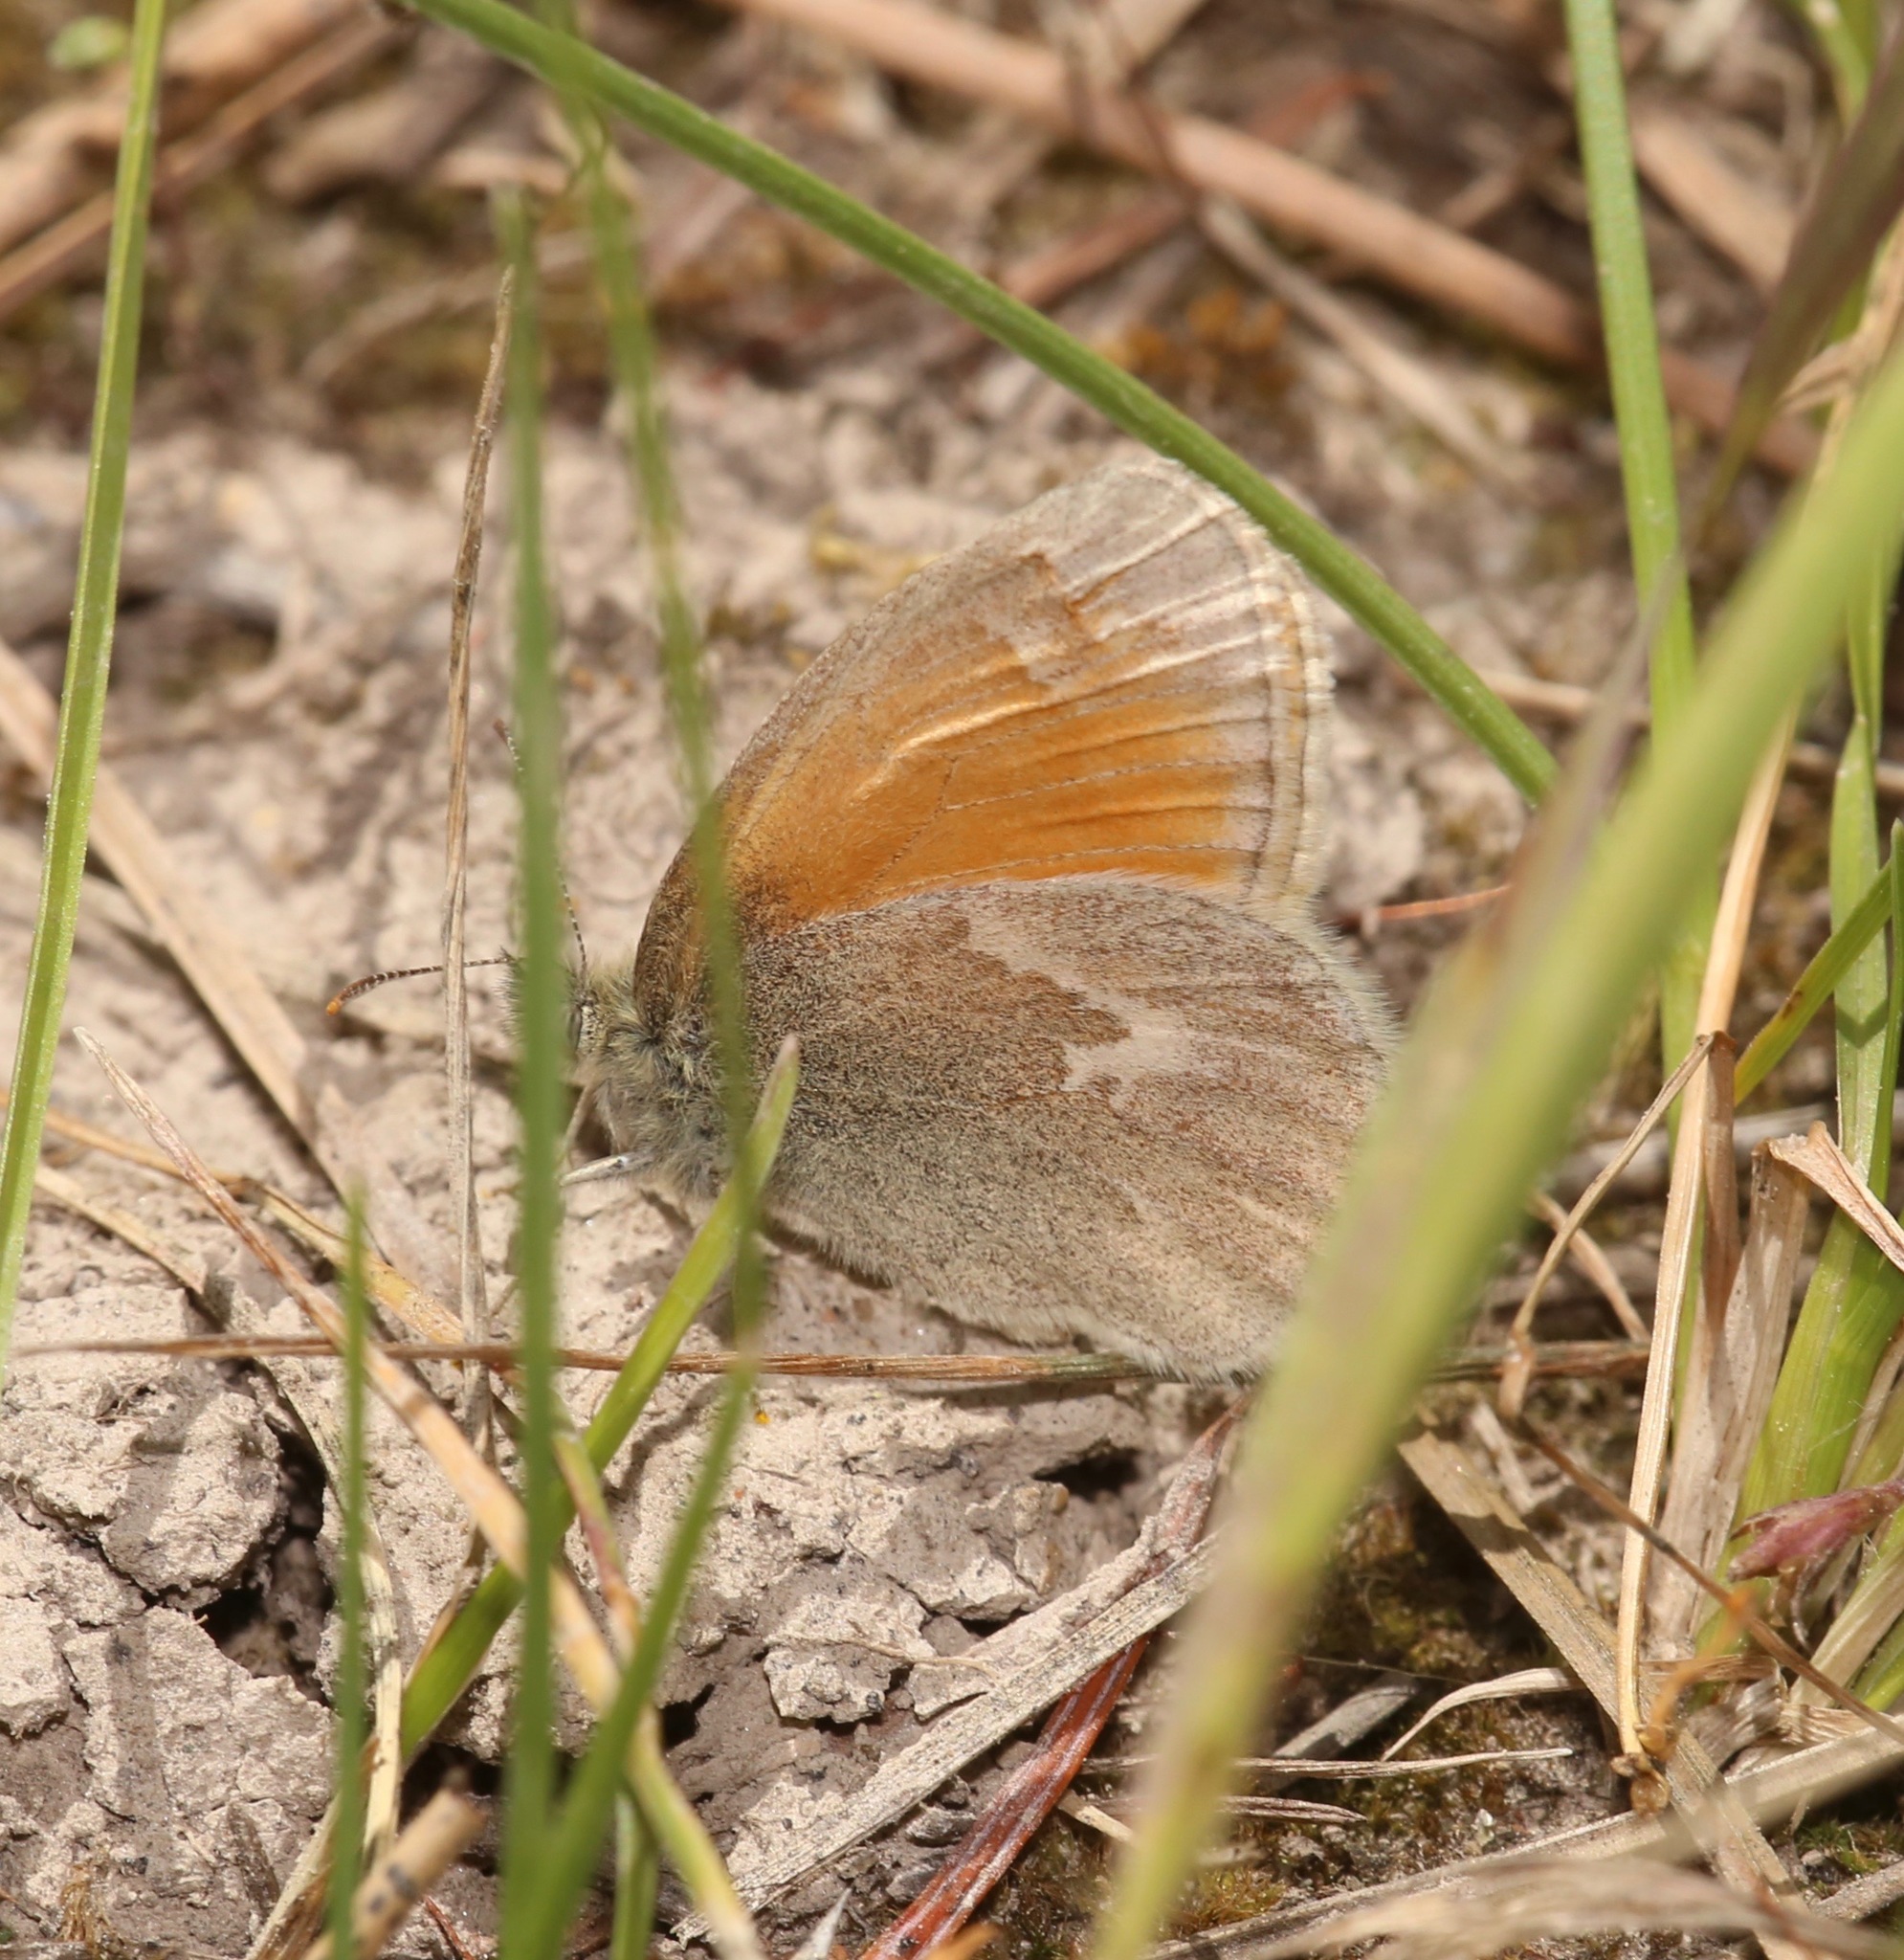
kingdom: Animalia
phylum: Arthropoda
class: Insecta
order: Lepidoptera
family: Nymphalidae
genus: Coenonympha
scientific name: Coenonympha california
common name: Common ringlet
